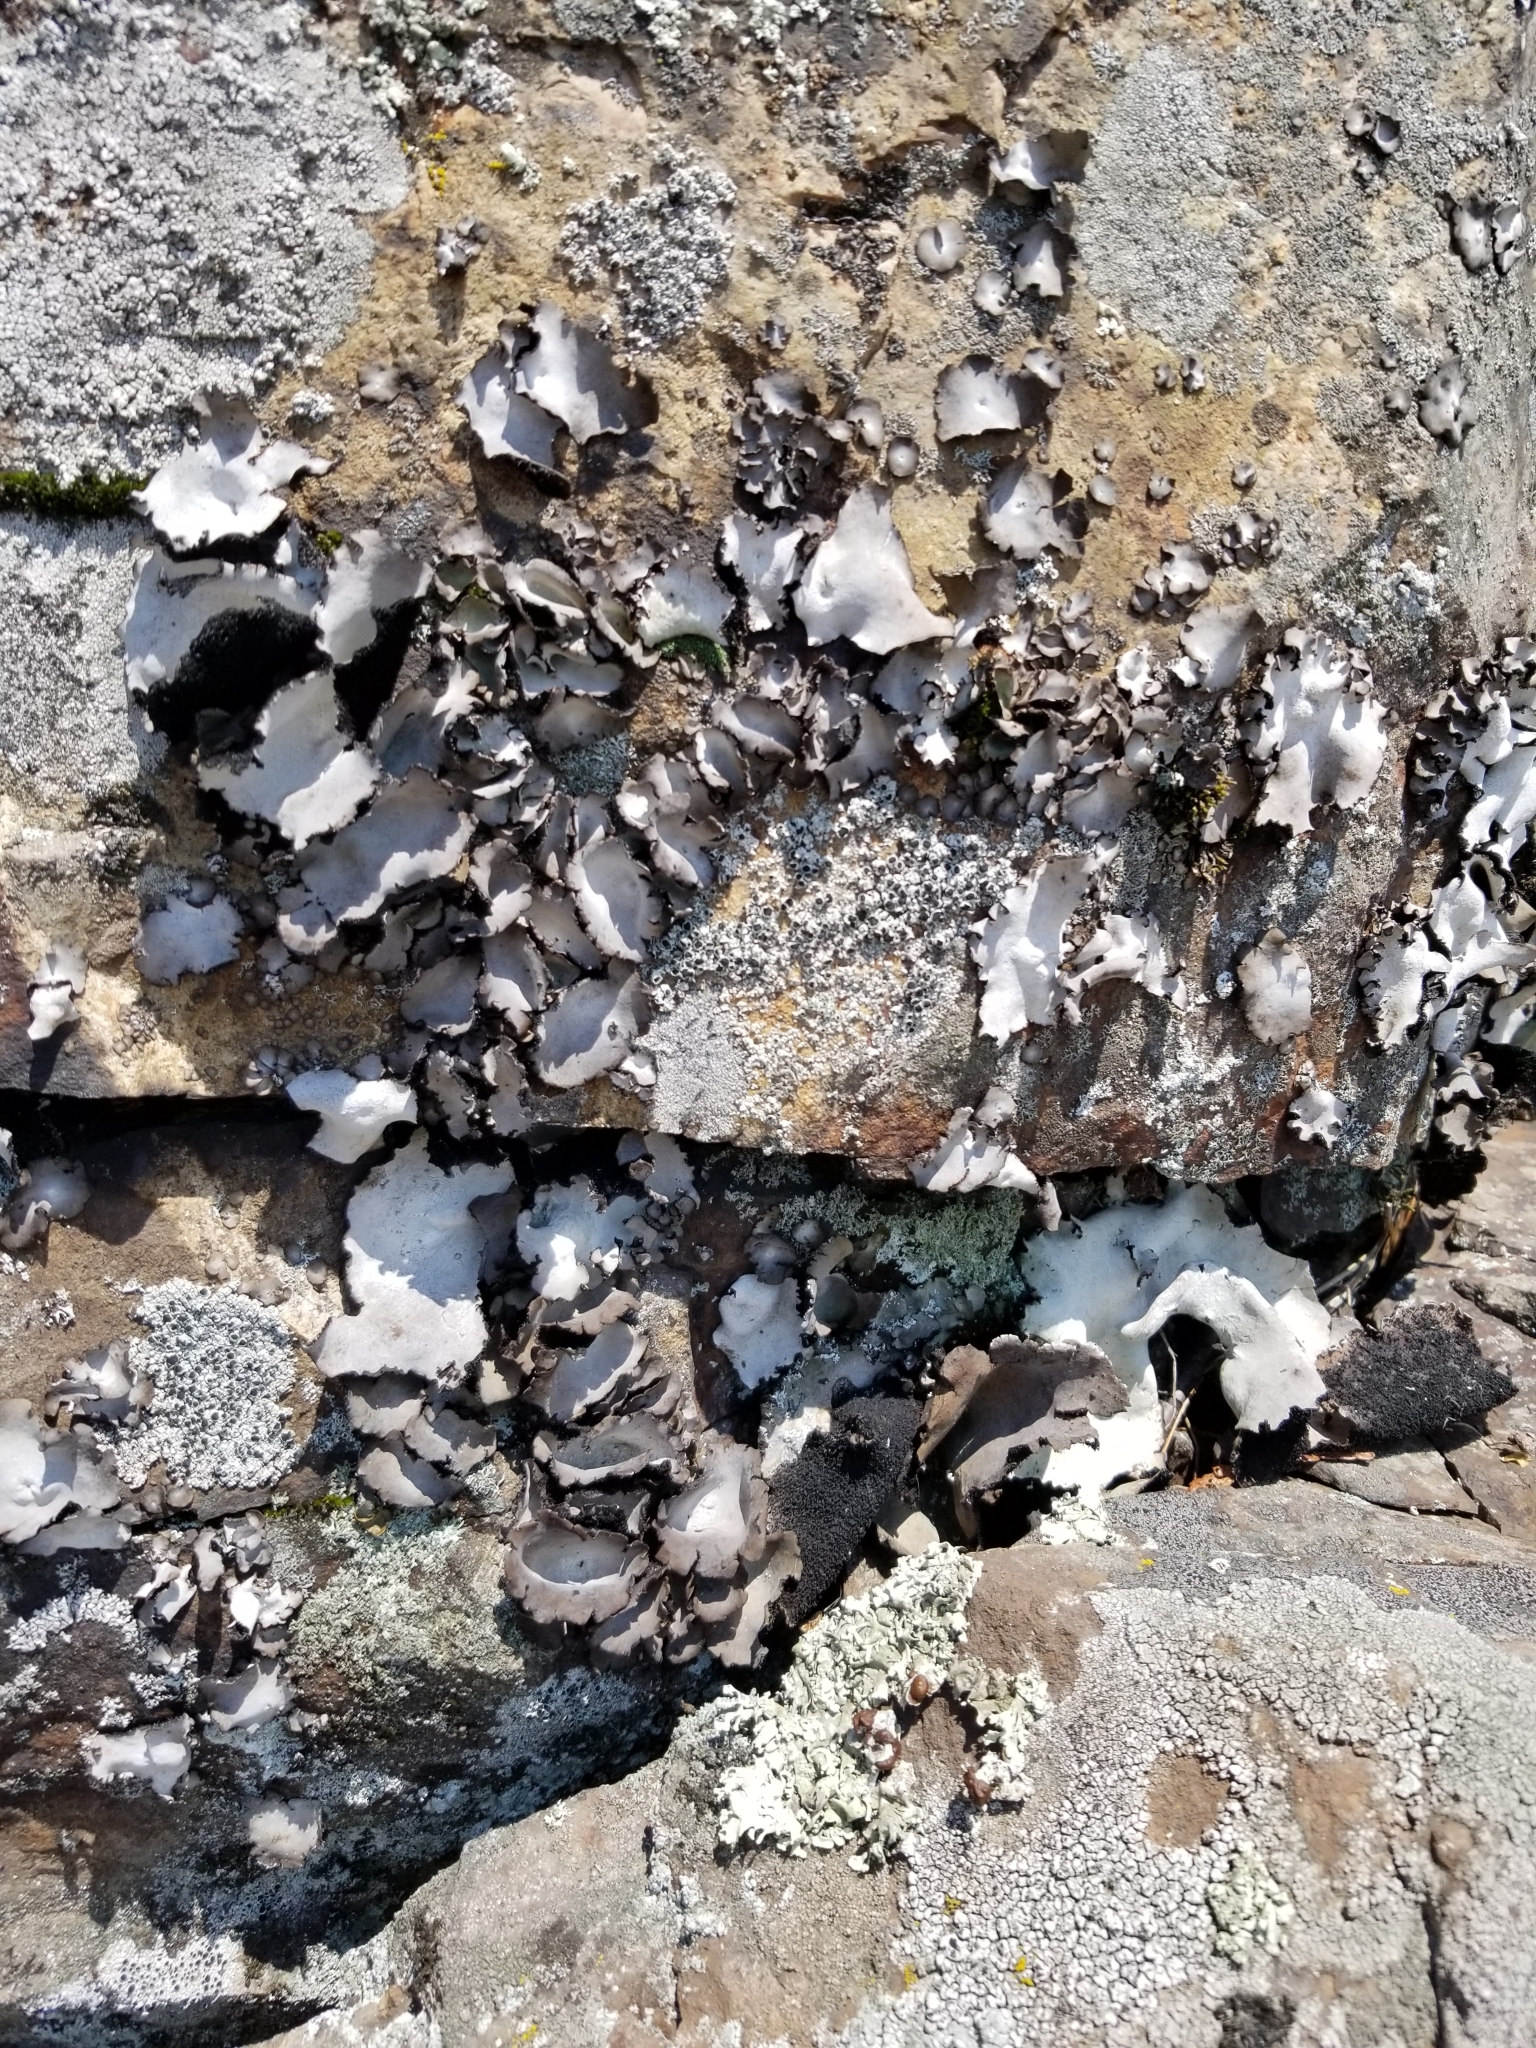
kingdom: Fungi
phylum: Ascomycota
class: Lecanoromycetes
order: Umbilicariales
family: Umbilicariaceae
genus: Umbilicaria
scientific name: Umbilicaria americana
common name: Frosted rock tripe
